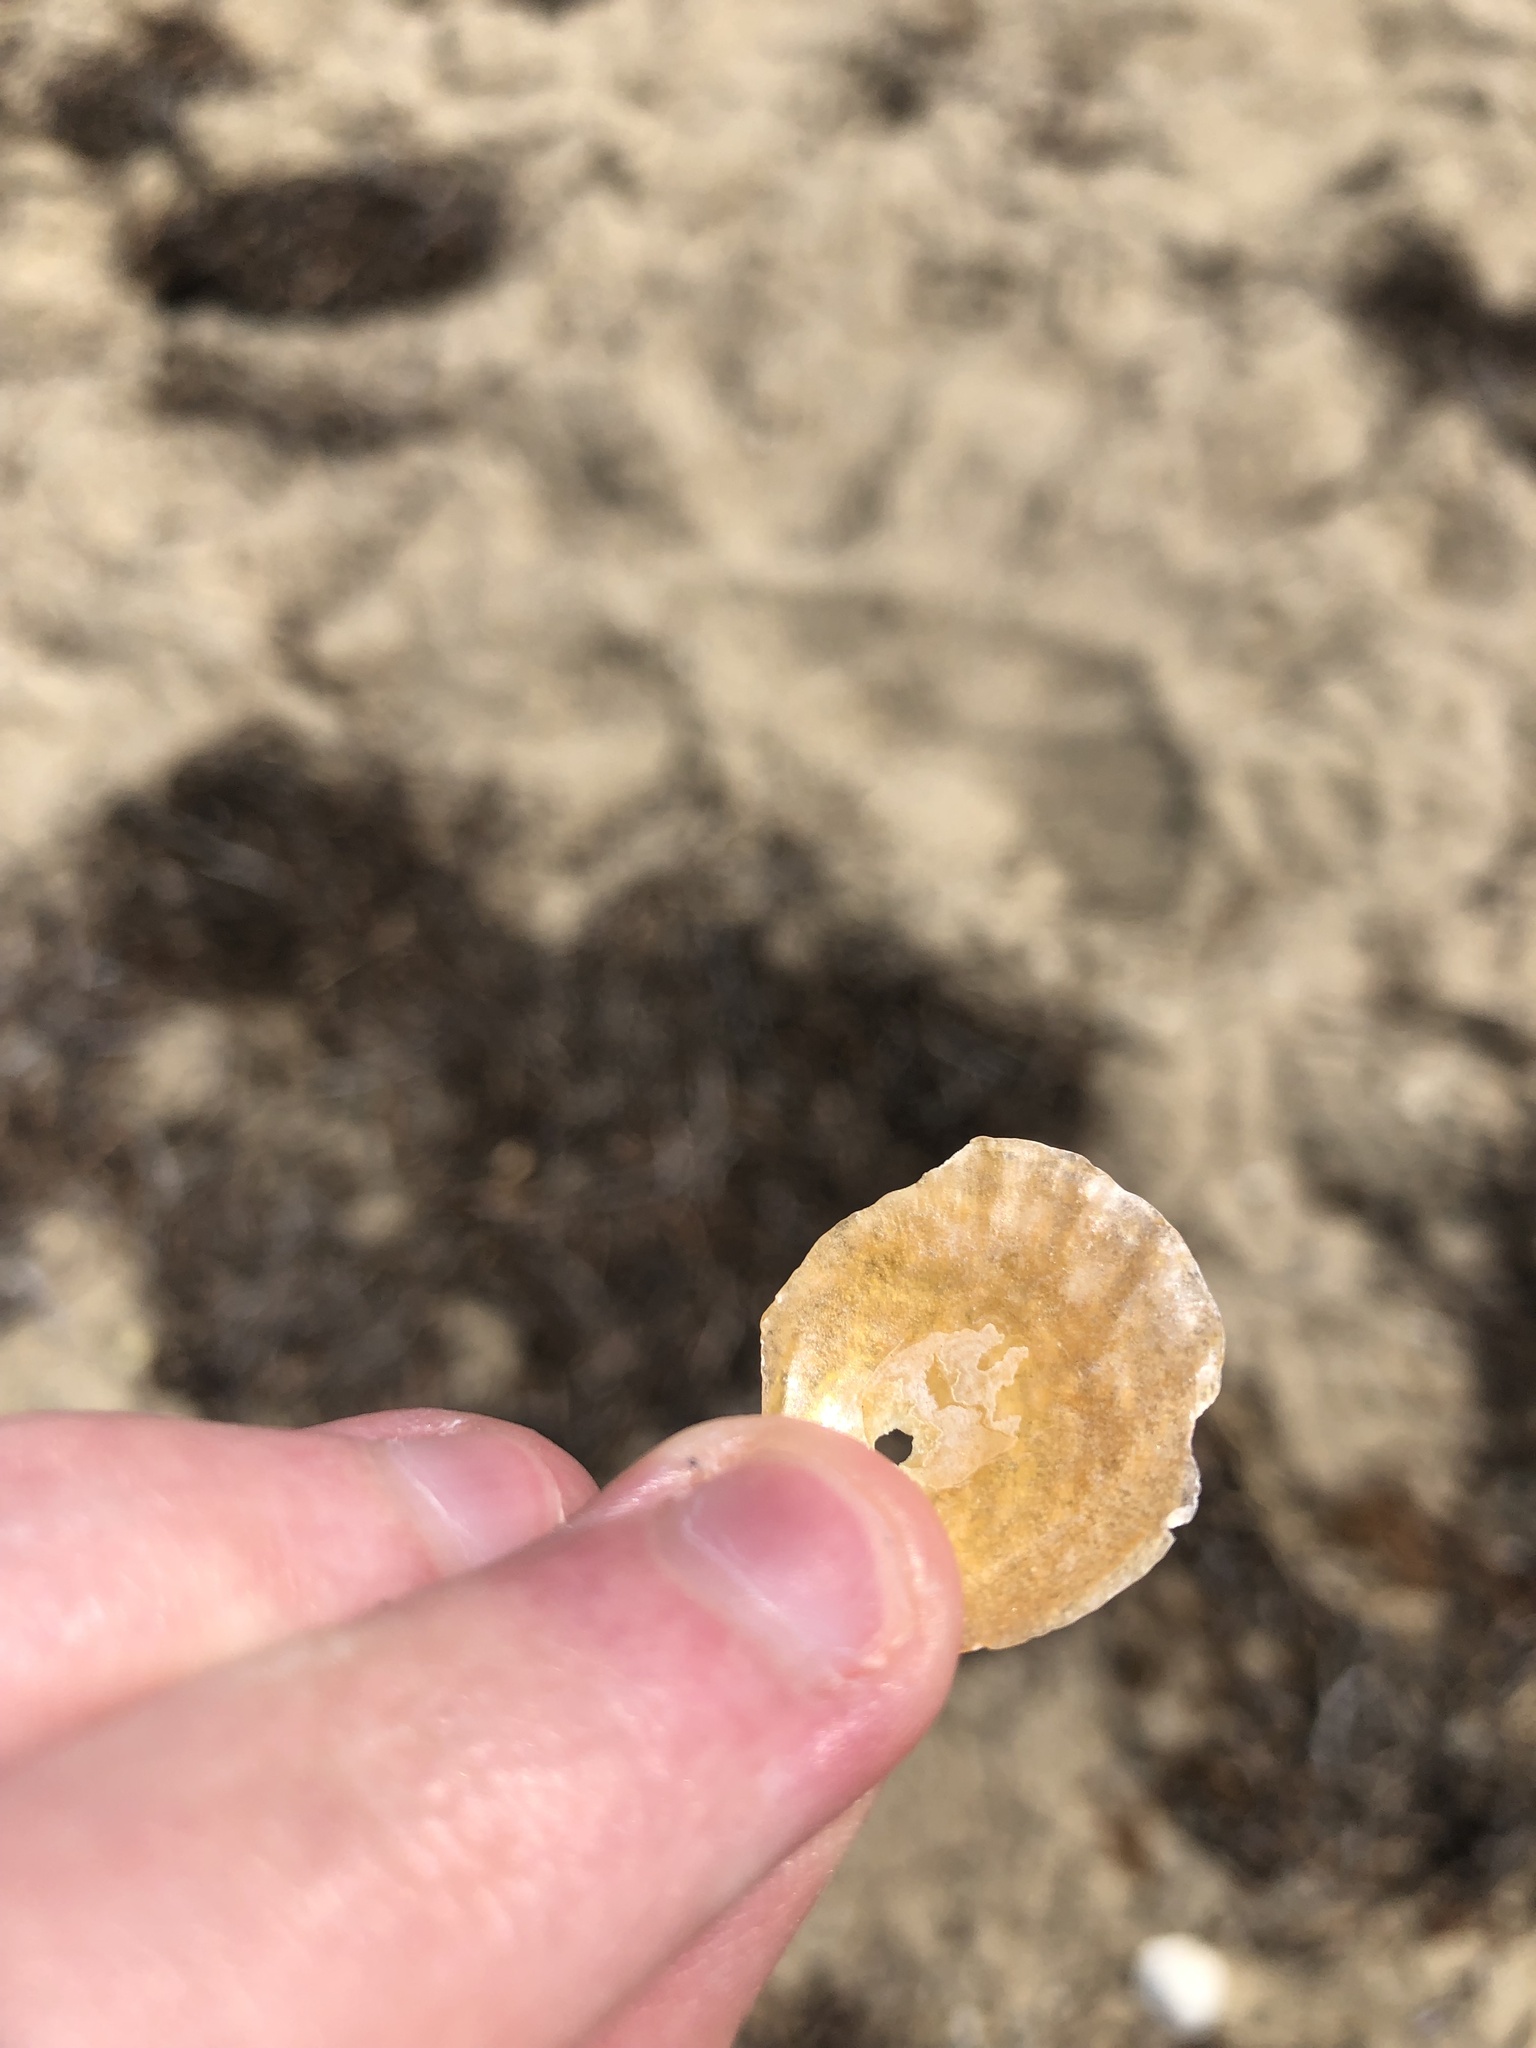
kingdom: Animalia
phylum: Mollusca
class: Bivalvia
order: Pectinida
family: Anomiidae
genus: Anomia
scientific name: Anomia simplex
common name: Common jingle shell
